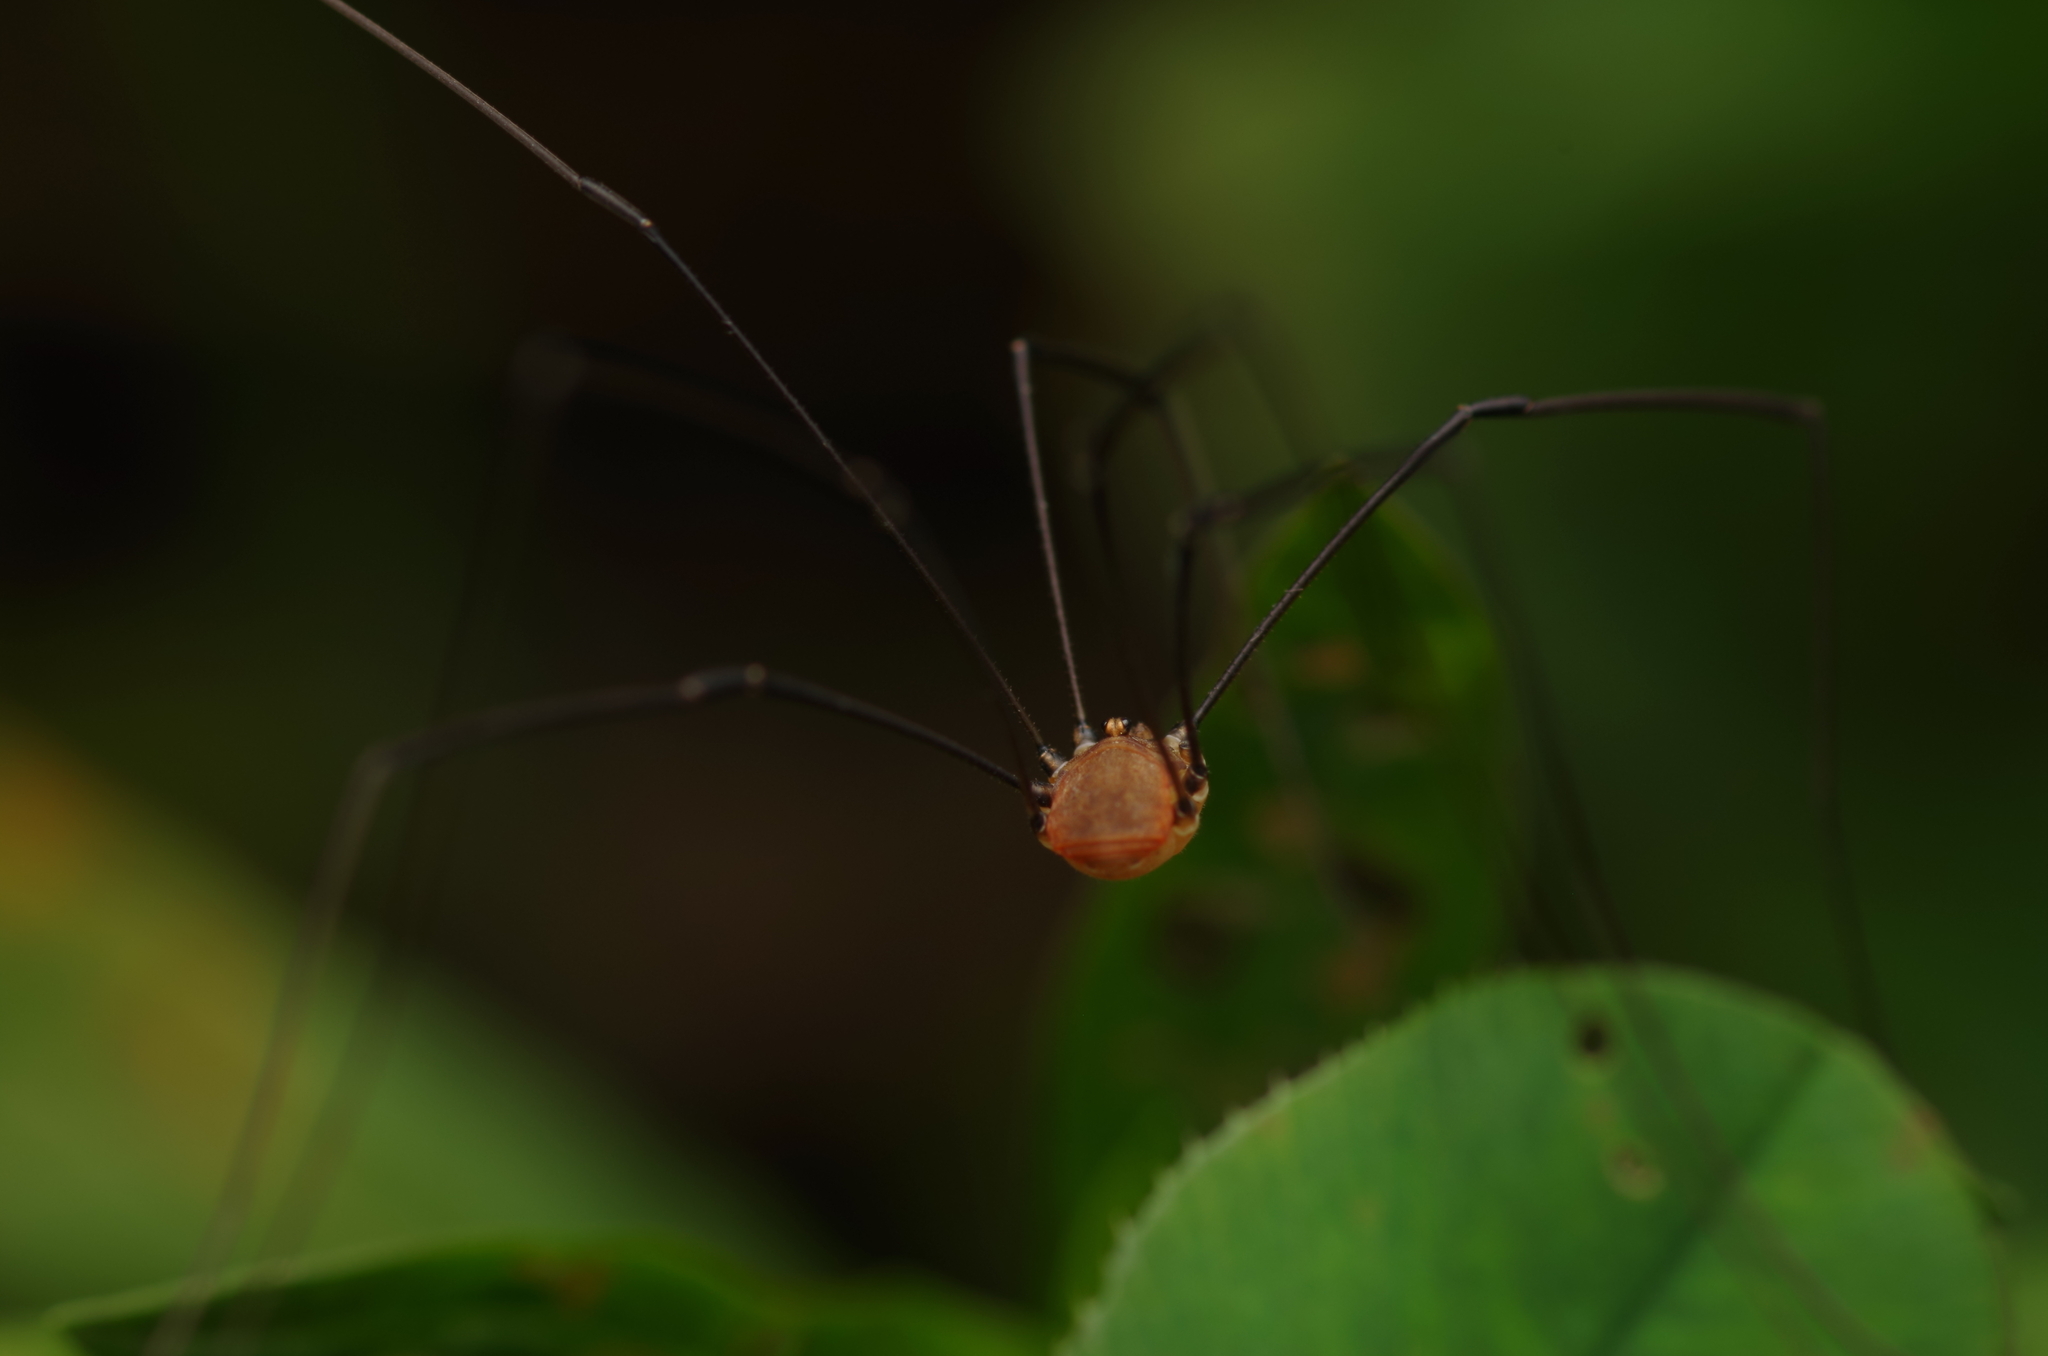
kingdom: Animalia
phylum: Arthropoda
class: Arachnida
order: Opiliones
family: Sclerosomatidae
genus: Leiobunum
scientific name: Leiobunum blackwalli
